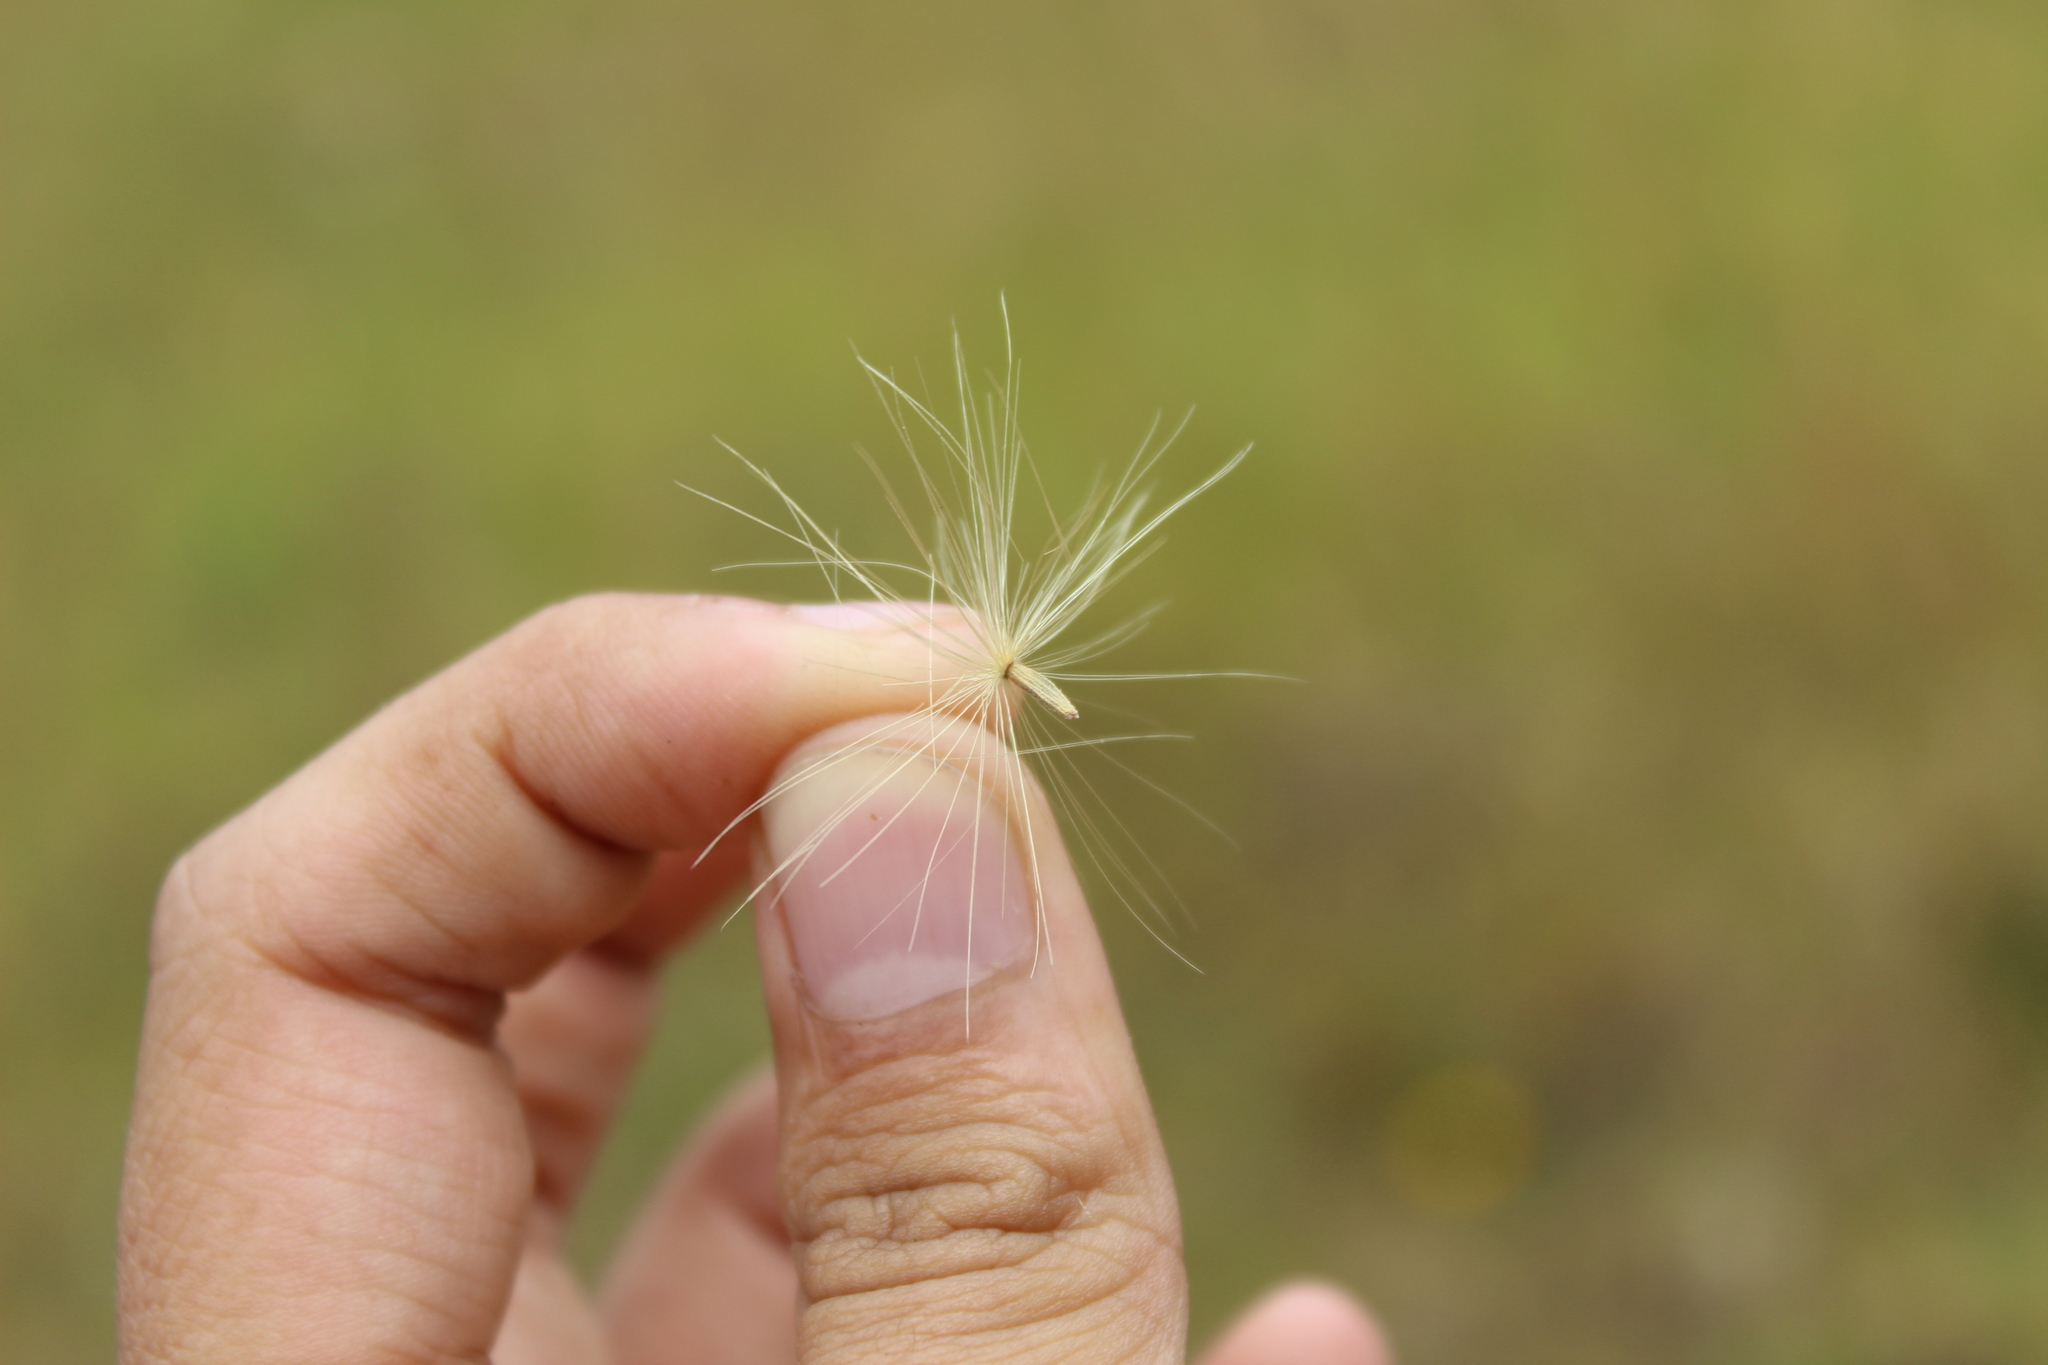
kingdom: Plantae
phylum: Tracheophyta
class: Magnoliopsida
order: Asterales
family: Asteraceae
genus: Cirsium
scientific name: Cirsium vulgare
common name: Bull thistle
